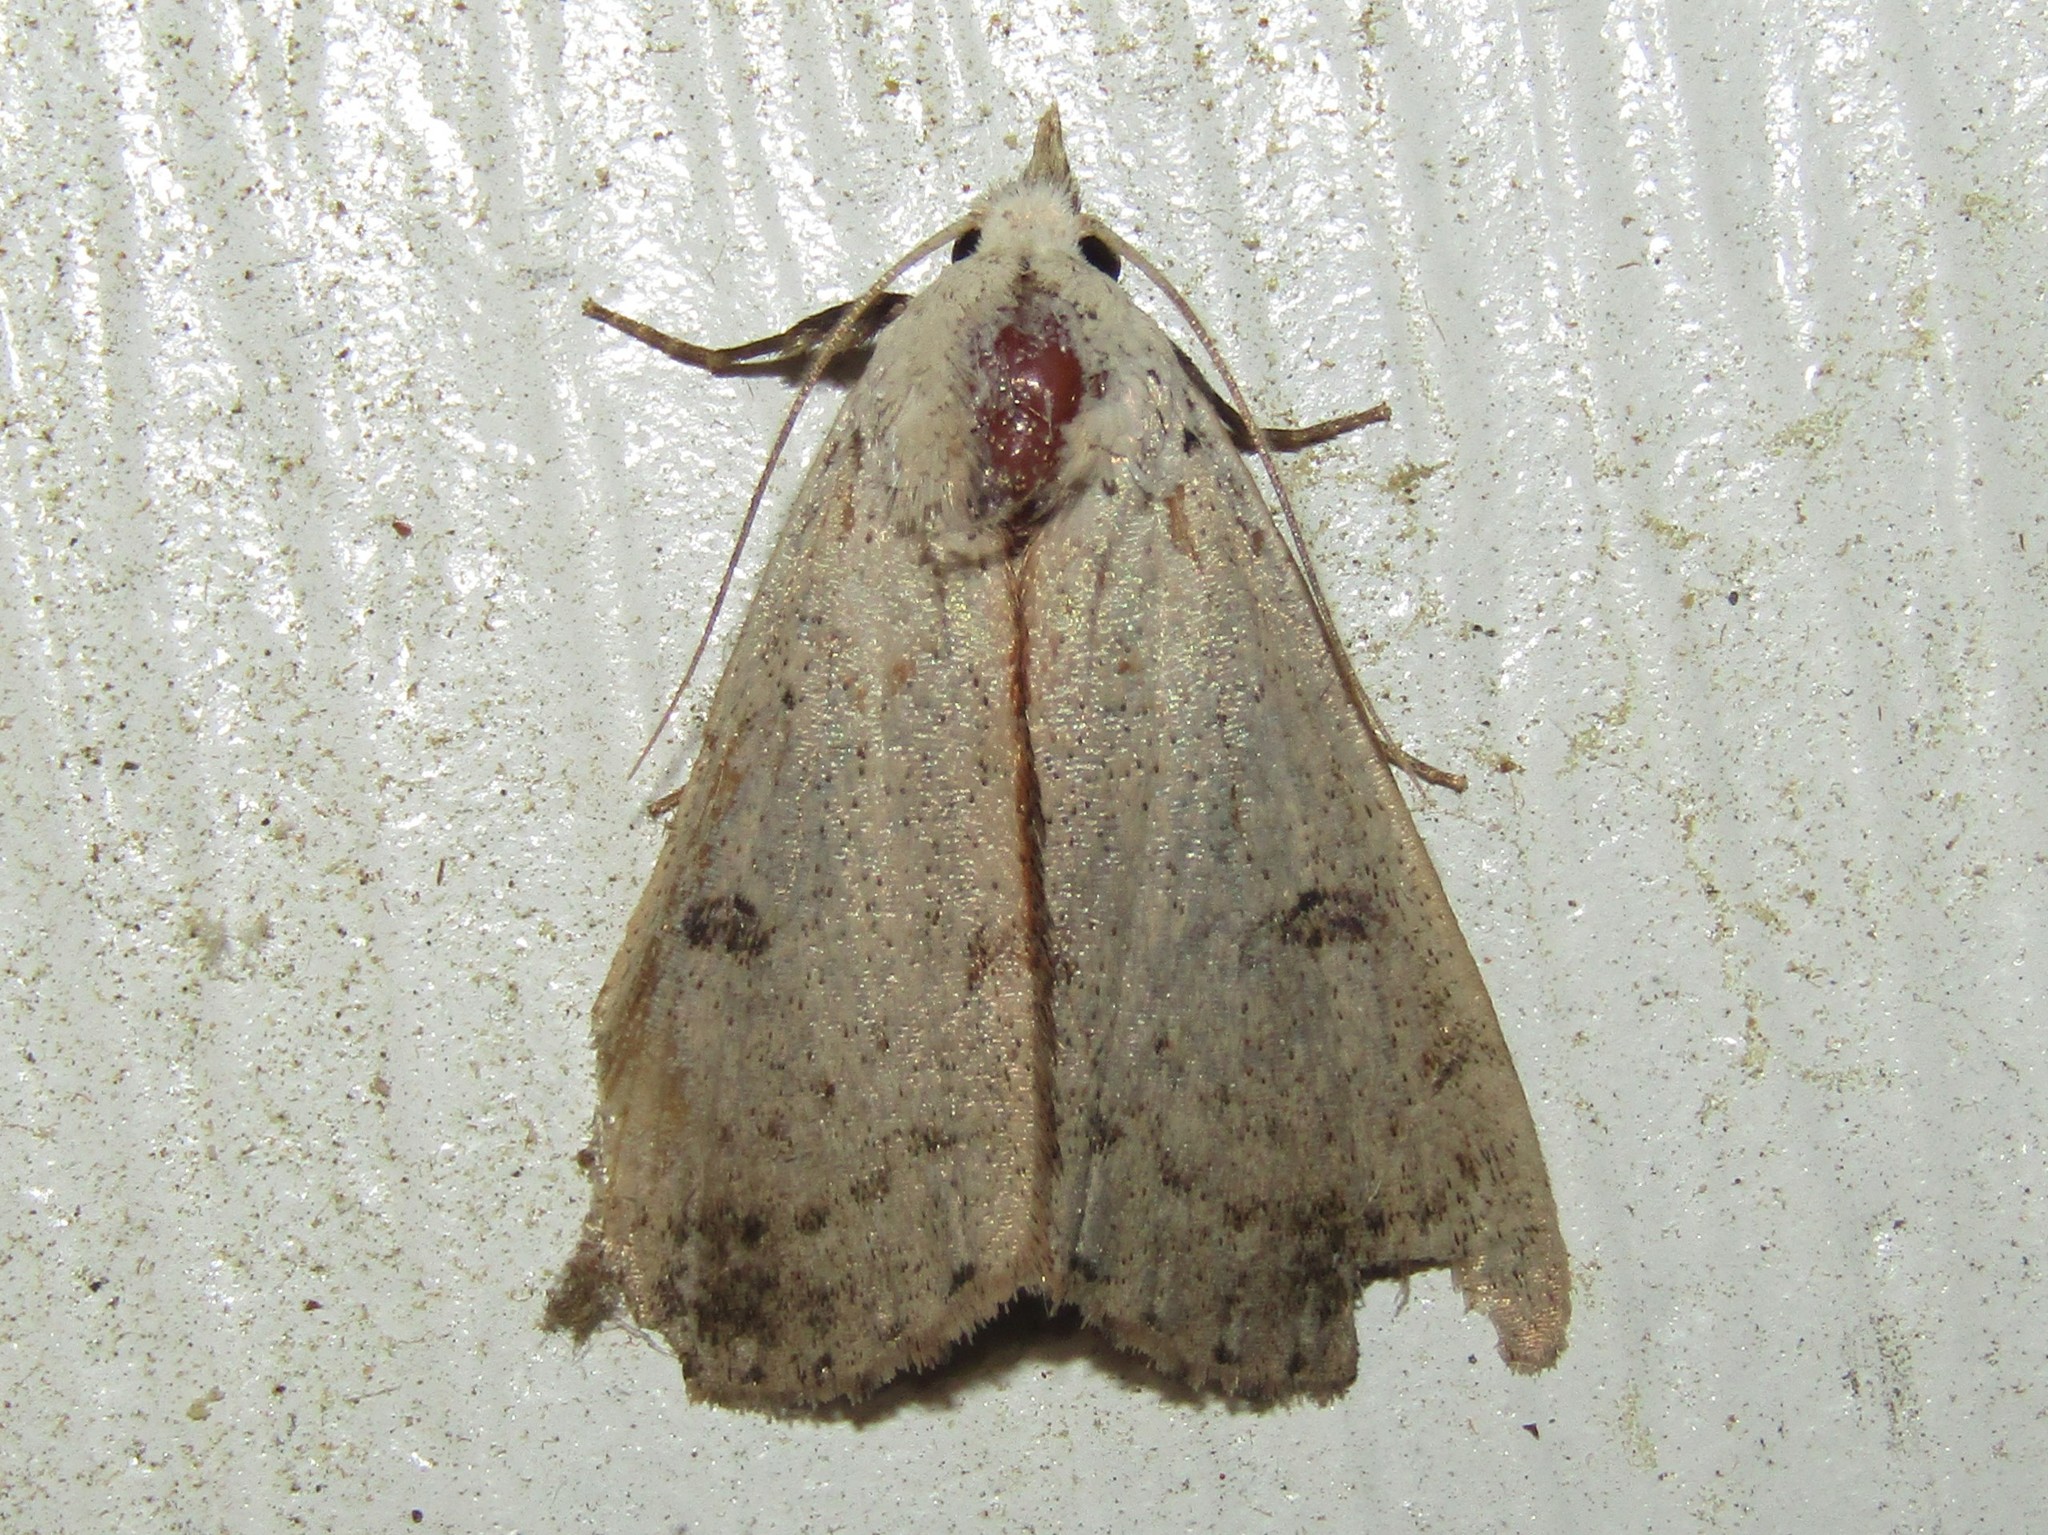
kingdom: Animalia
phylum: Arthropoda
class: Insecta
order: Lepidoptera
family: Erebidae
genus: Scolecocampa
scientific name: Scolecocampa liburna
